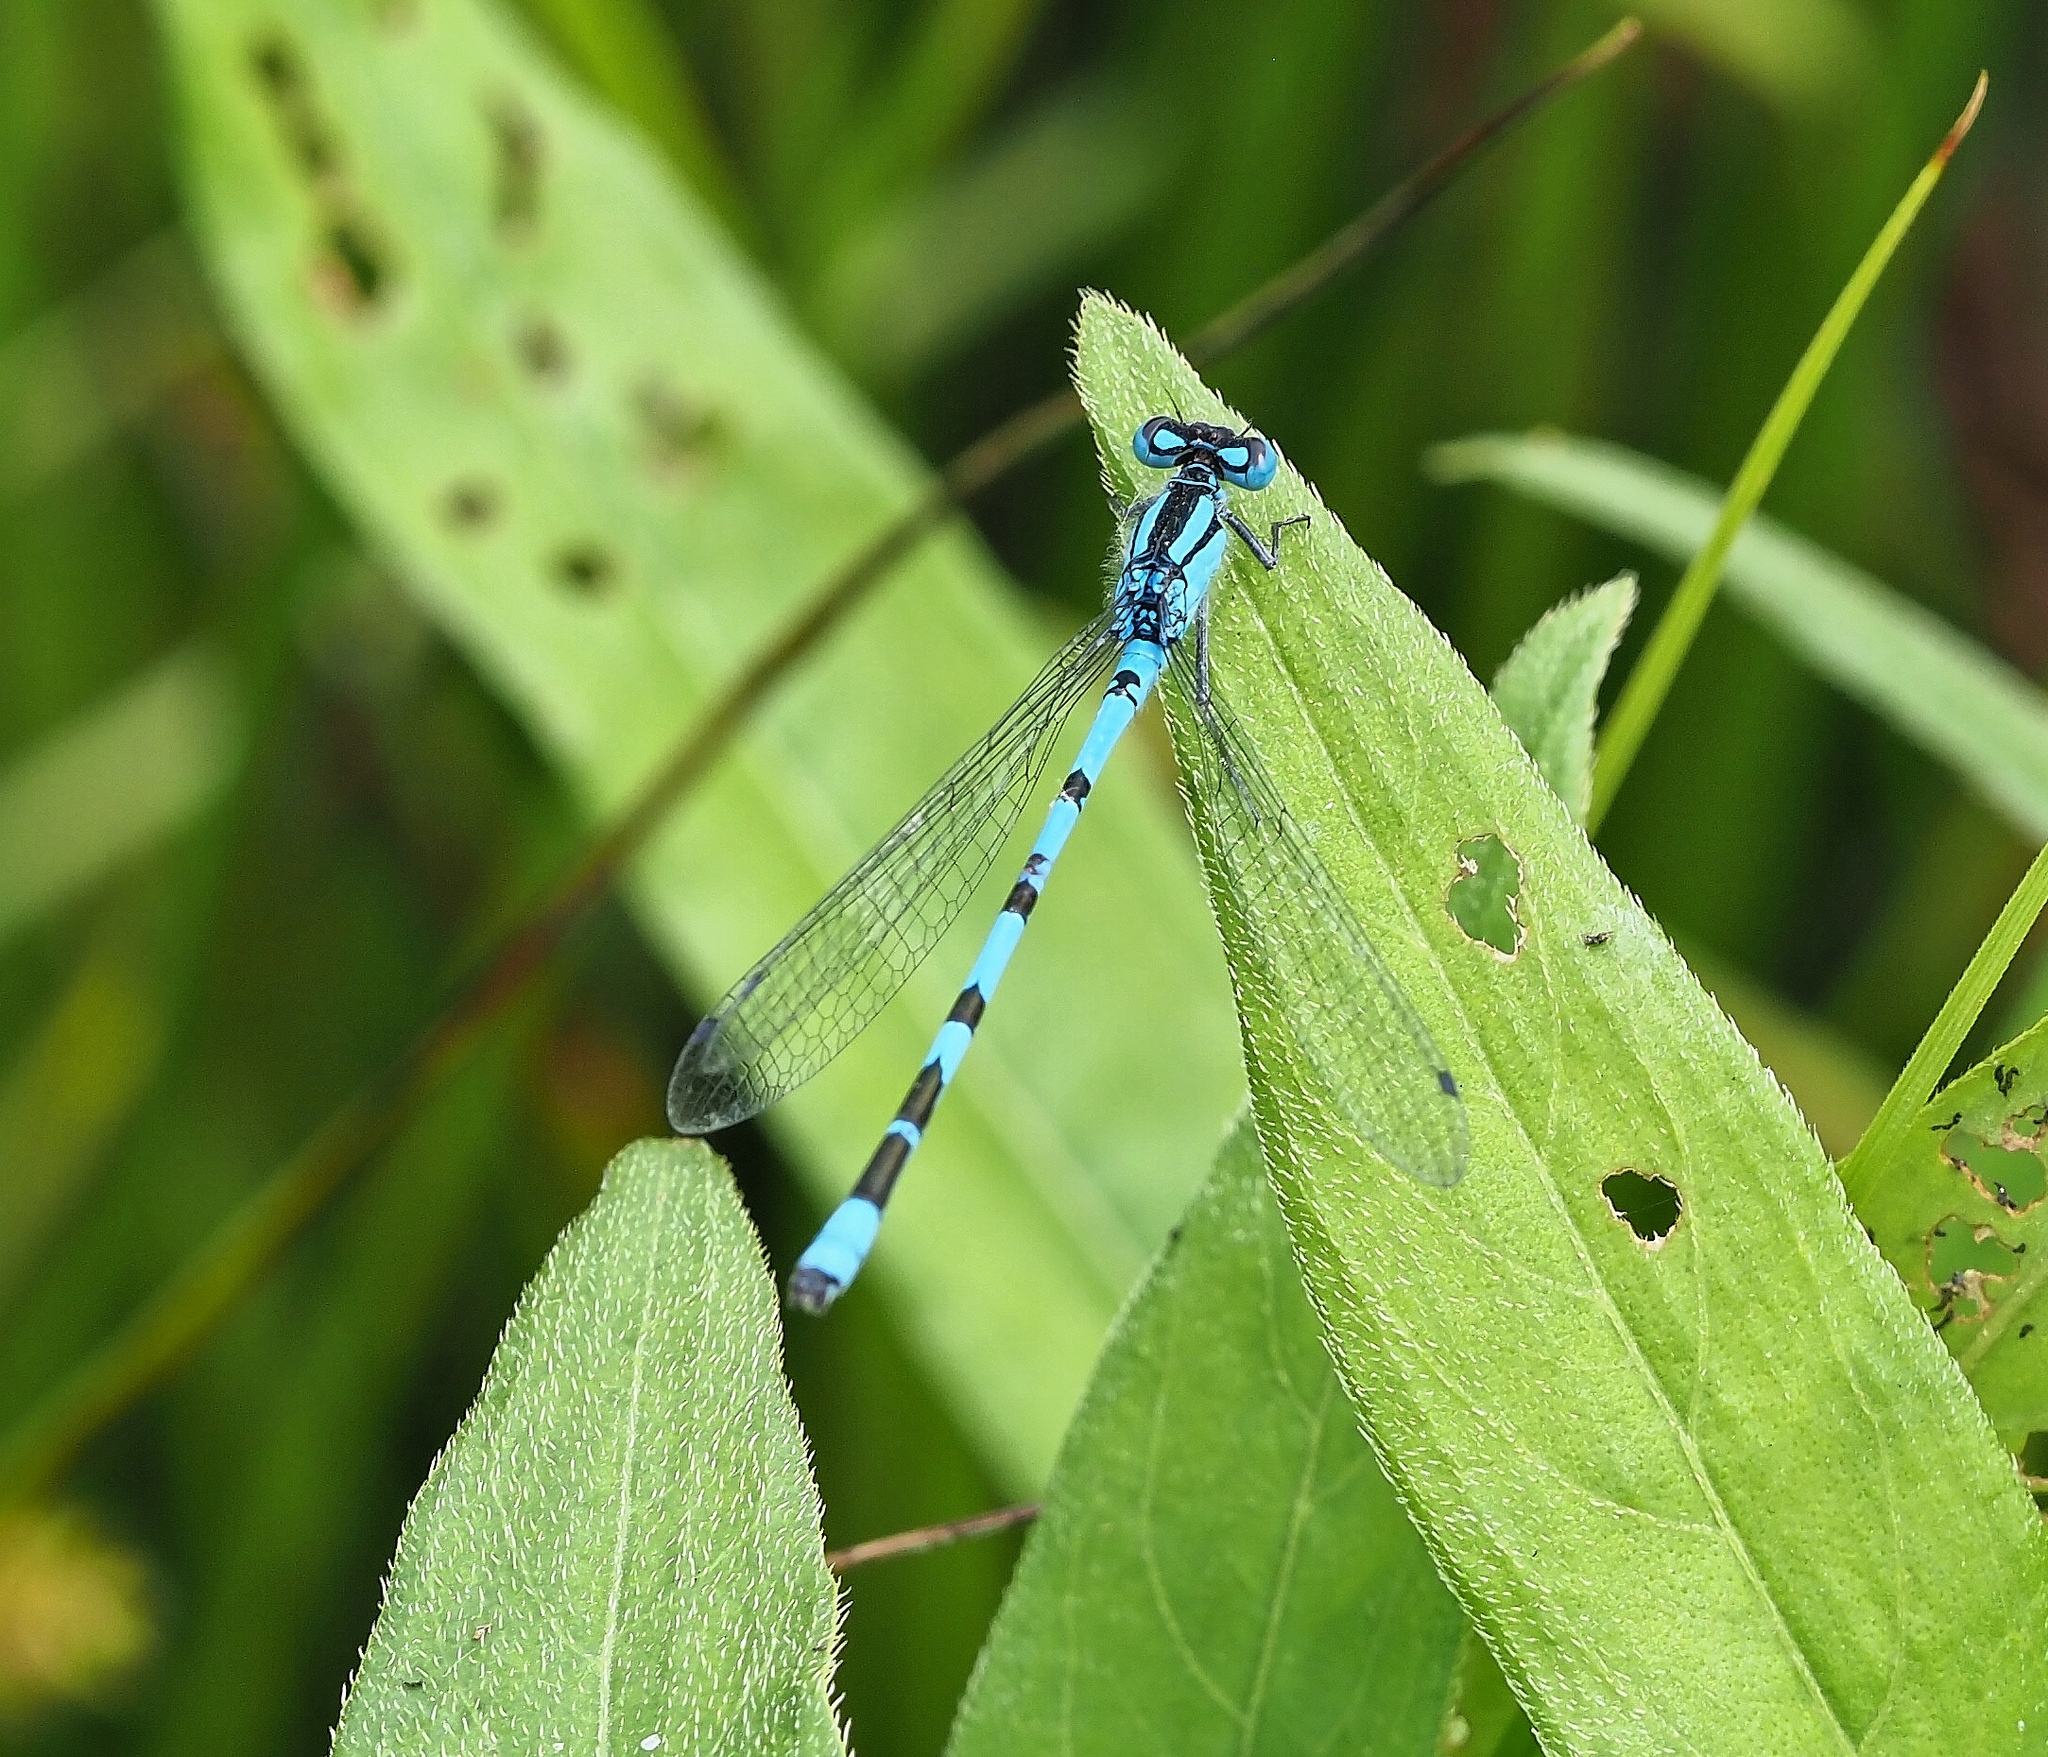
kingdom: Animalia
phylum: Arthropoda
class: Insecta
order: Odonata
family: Coenagrionidae
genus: Enallagma
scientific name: Enallagma cyathigerum
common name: Common blue damselfly
